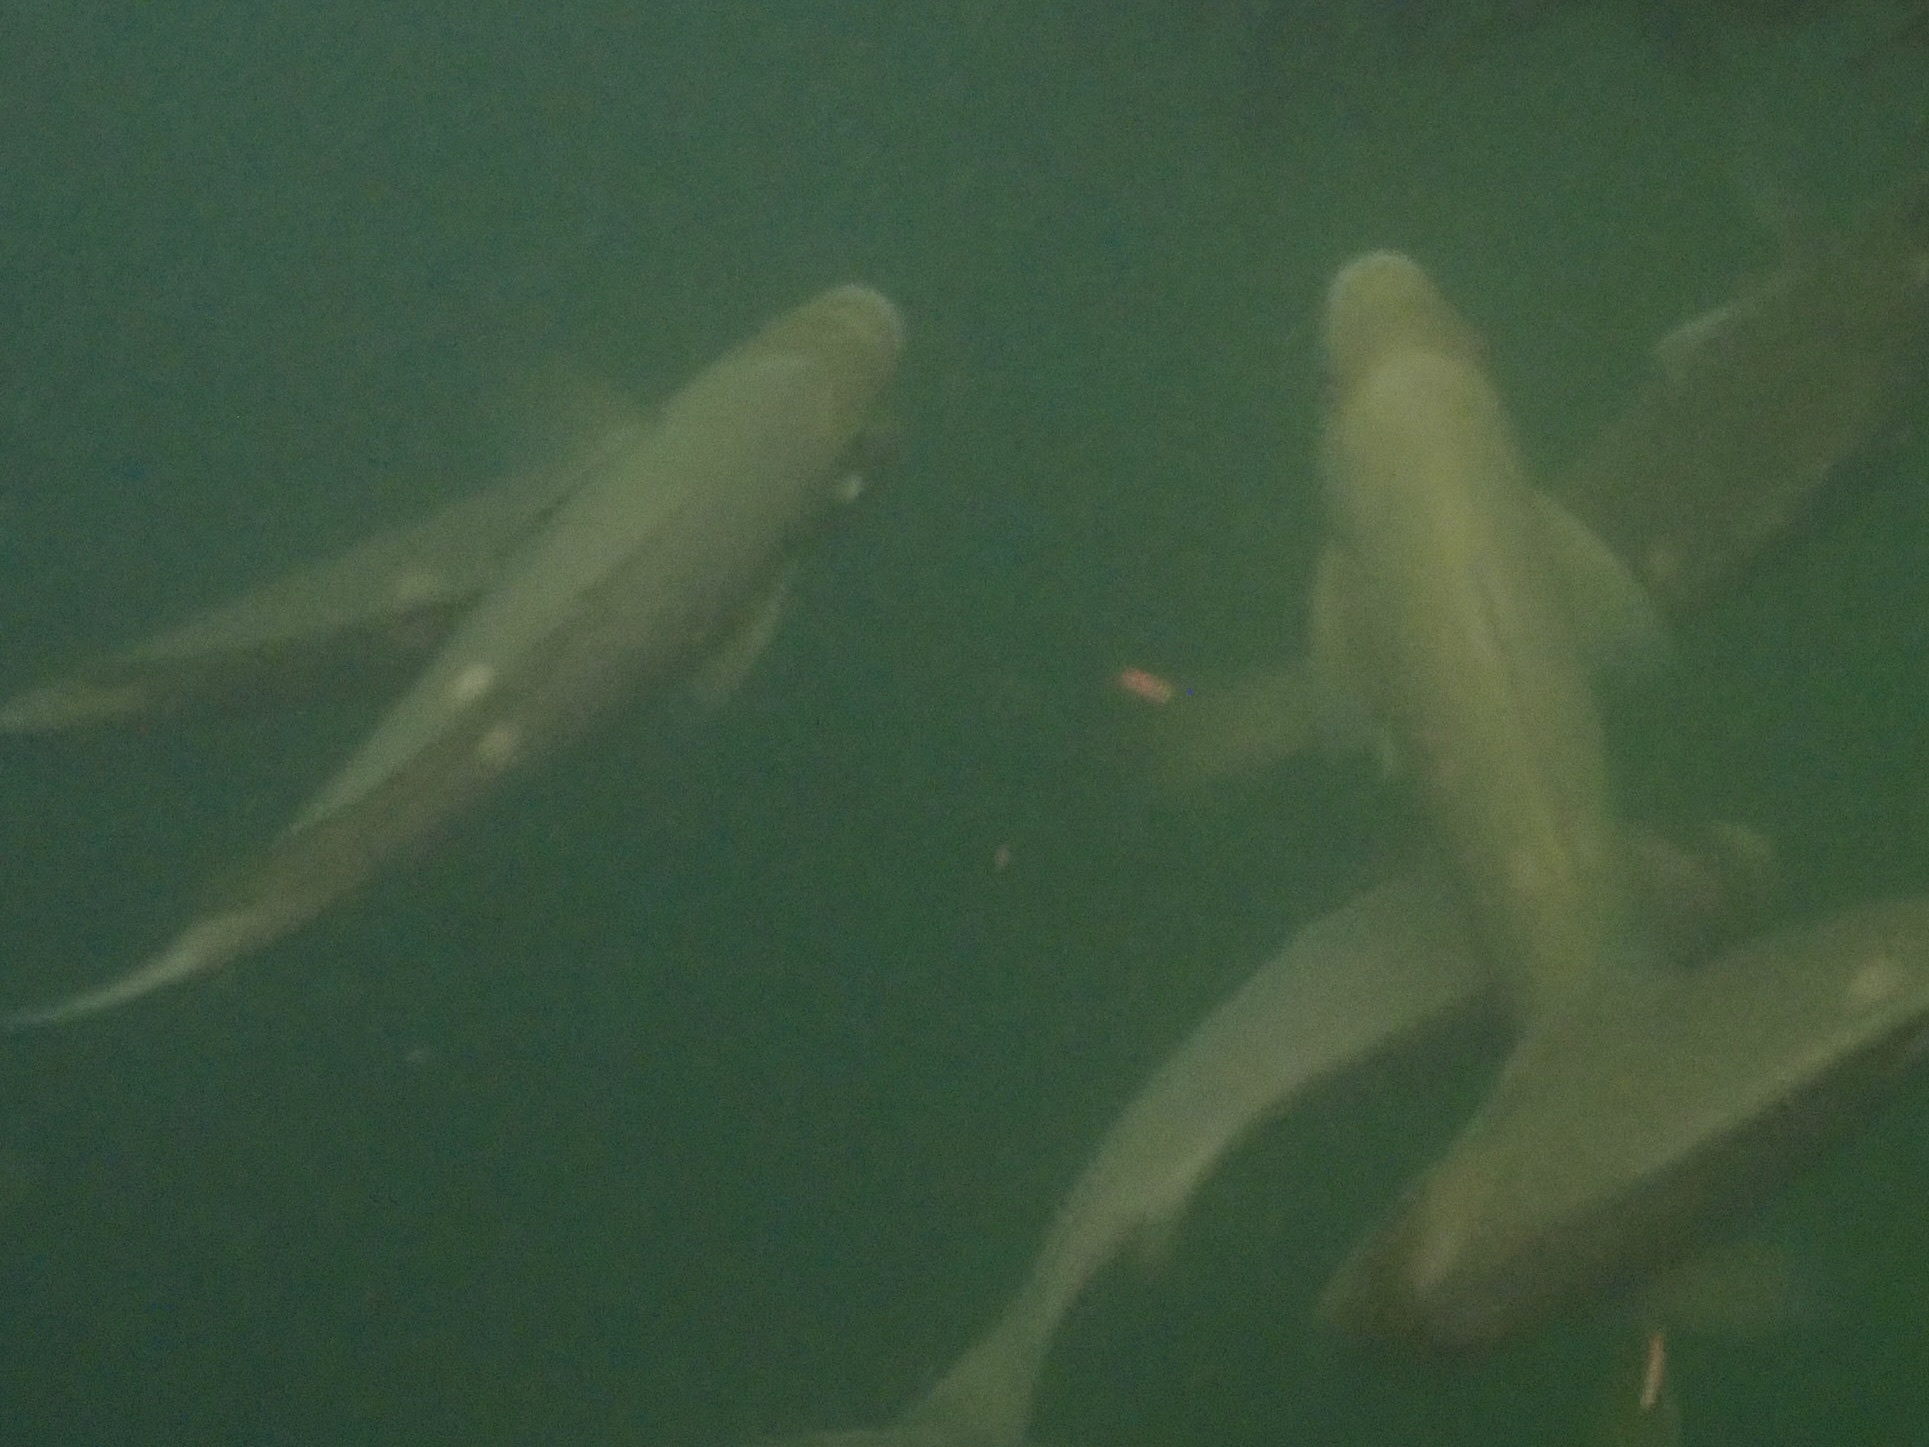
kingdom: Animalia
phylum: Chordata
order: Perciformes
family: Kyphosidae
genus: Girella
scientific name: Girella nigricans
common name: Opaleye
